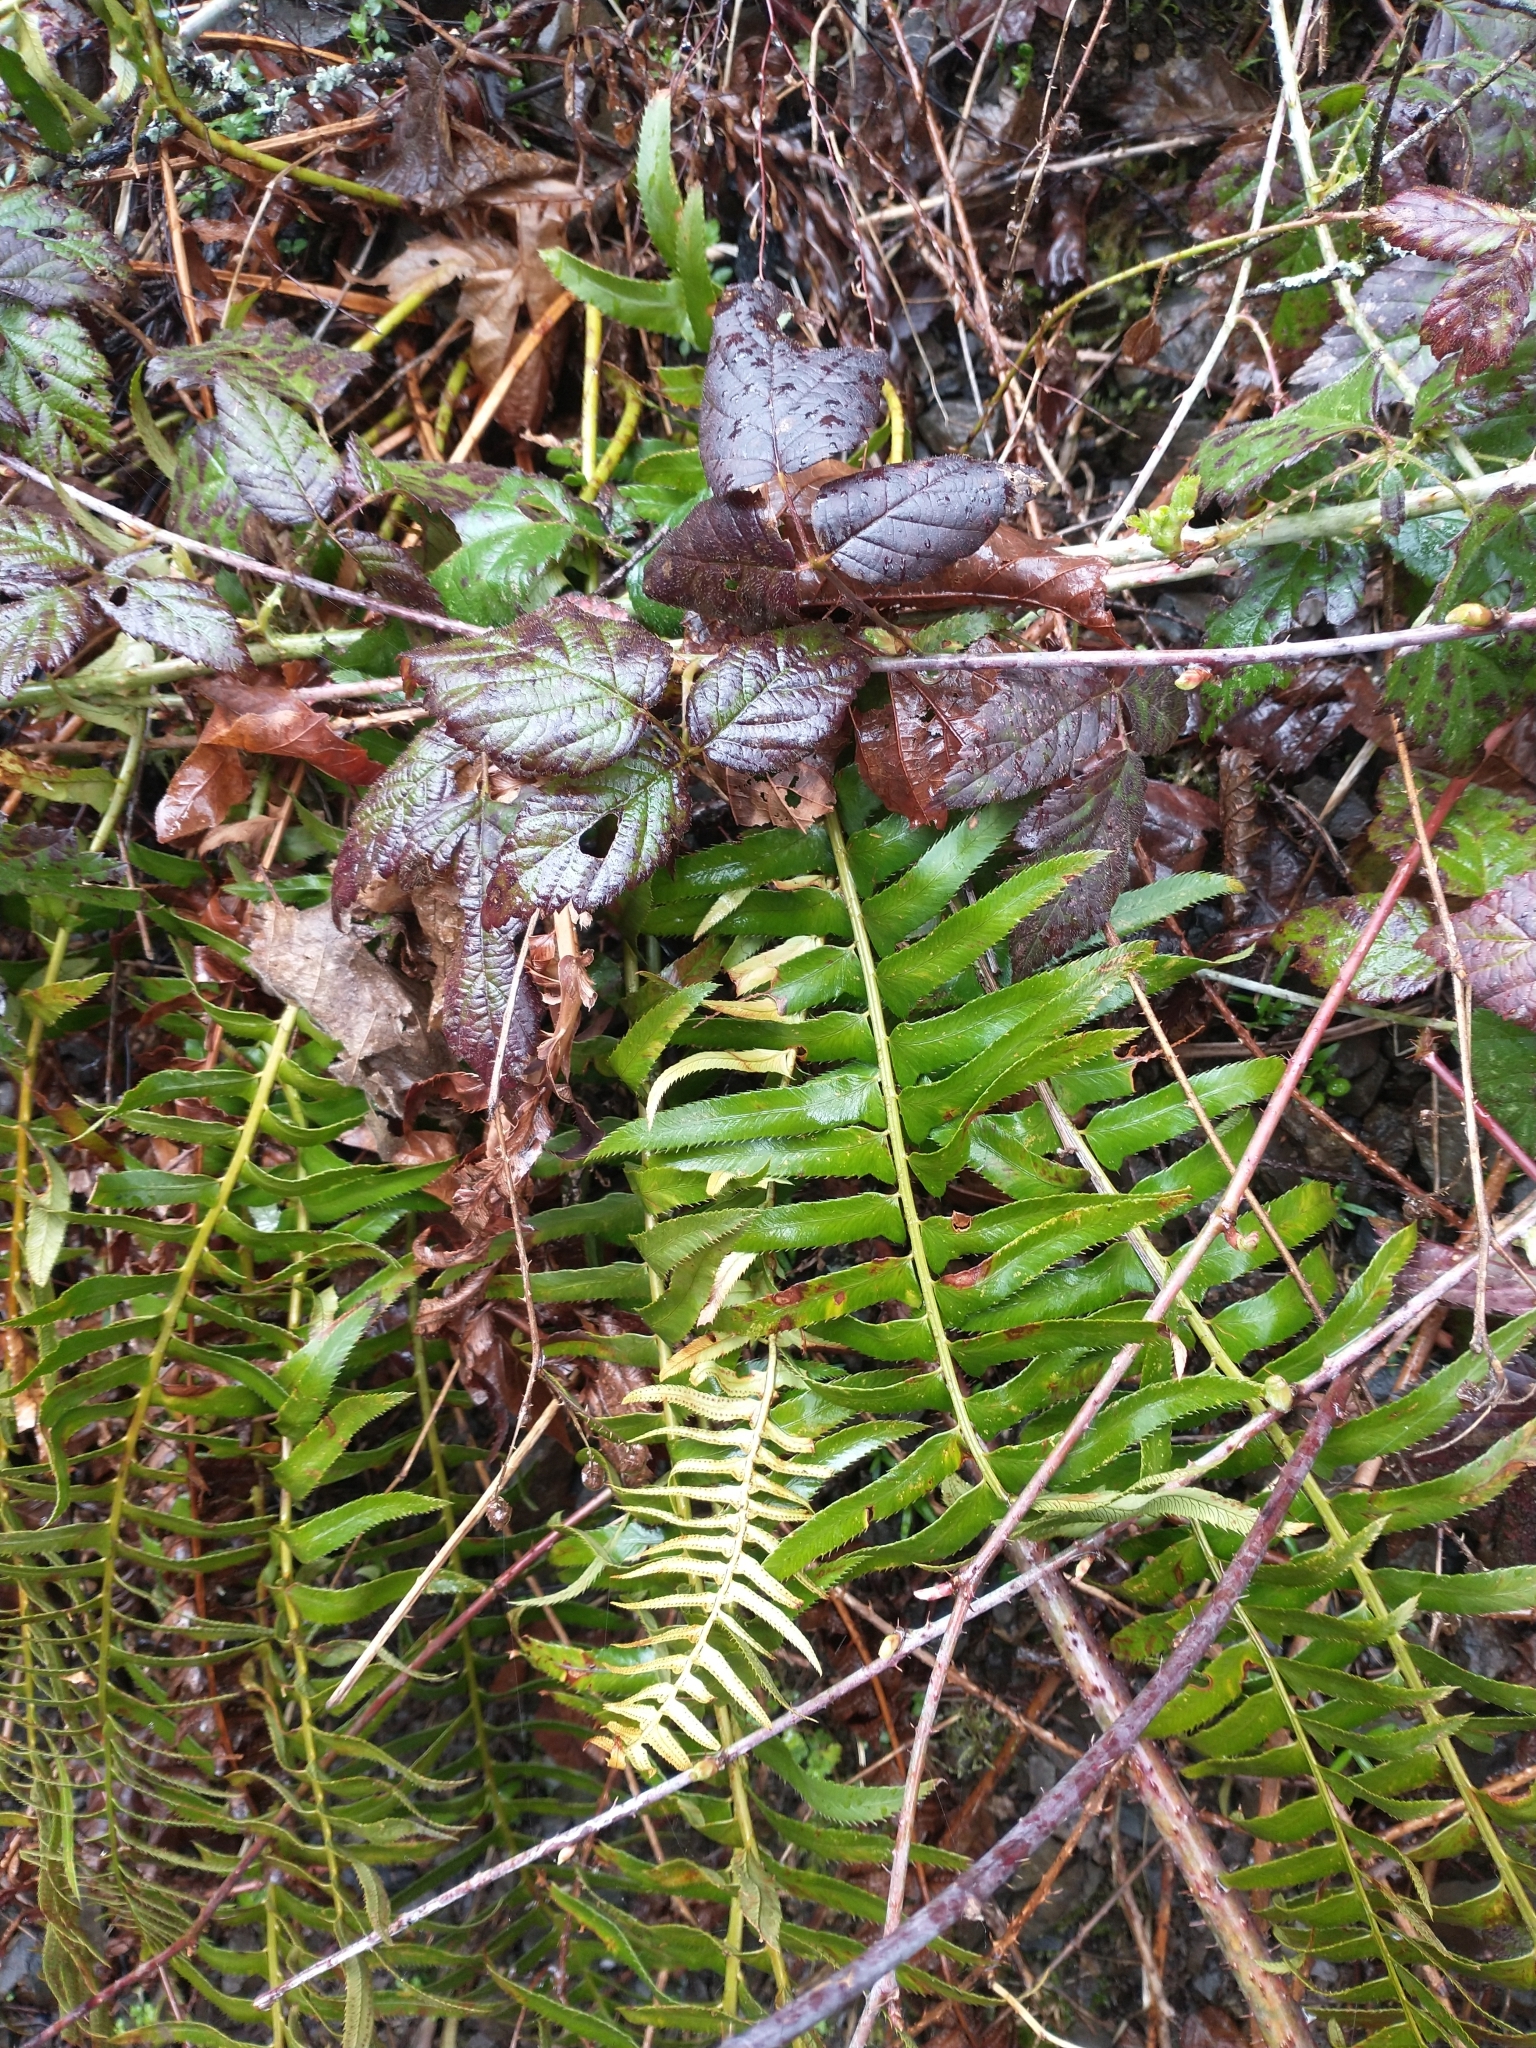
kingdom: Plantae
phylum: Tracheophyta
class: Polypodiopsida
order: Polypodiales
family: Dryopteridaceae
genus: Polystichum
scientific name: Polystichum munitum
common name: Western sword-fern
